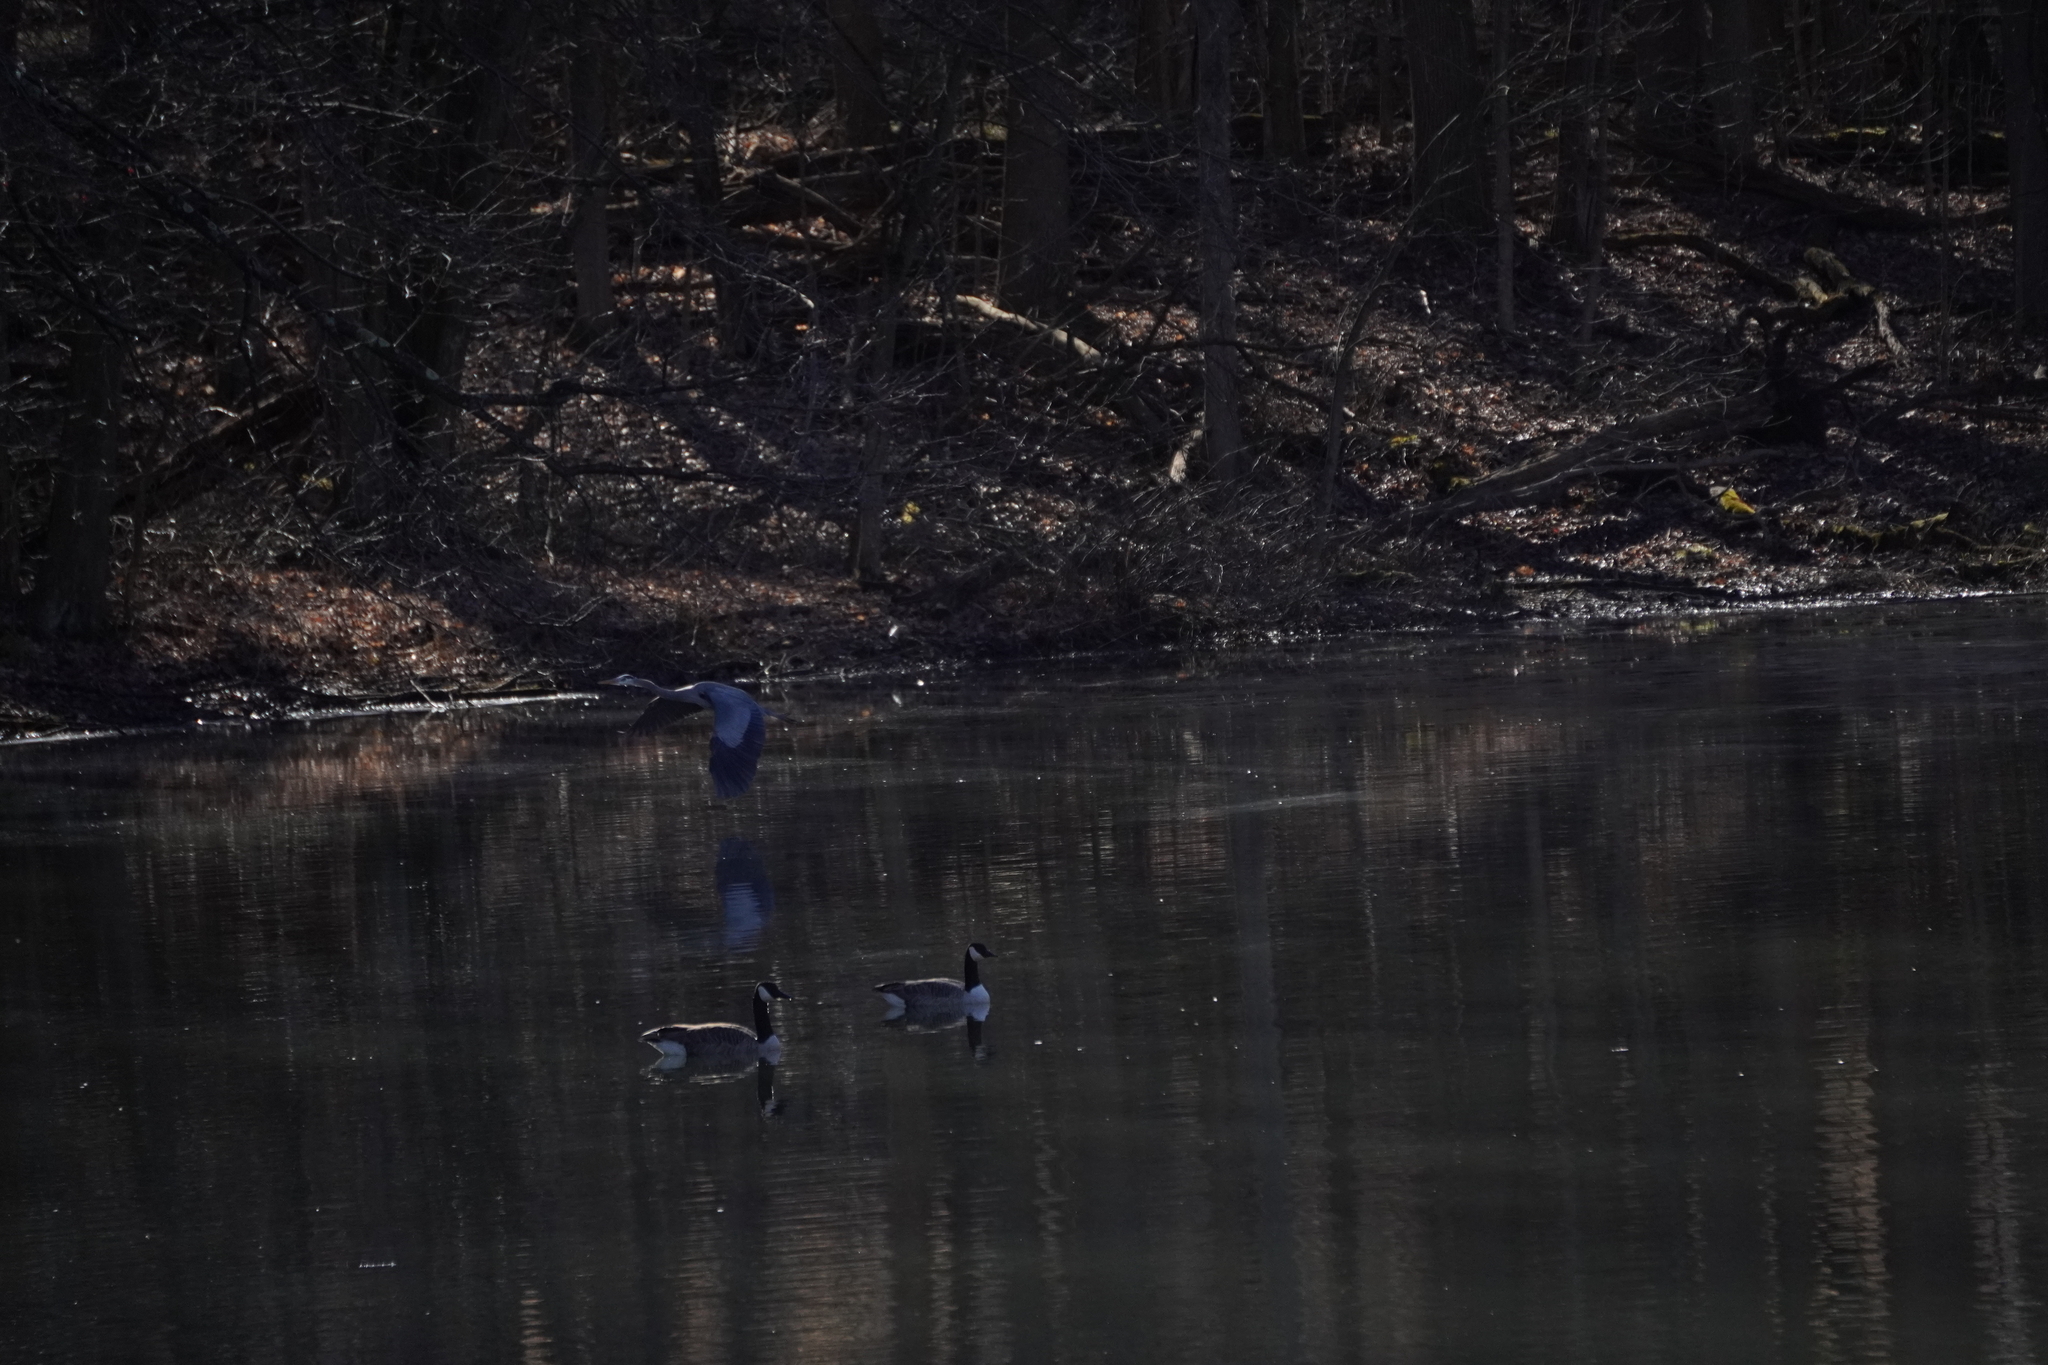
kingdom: Animalia
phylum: Chordata
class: Aves
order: Pelecaniformes
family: Ardeidae
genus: Ardea
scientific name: Ardea herodias
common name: Great blue heron
